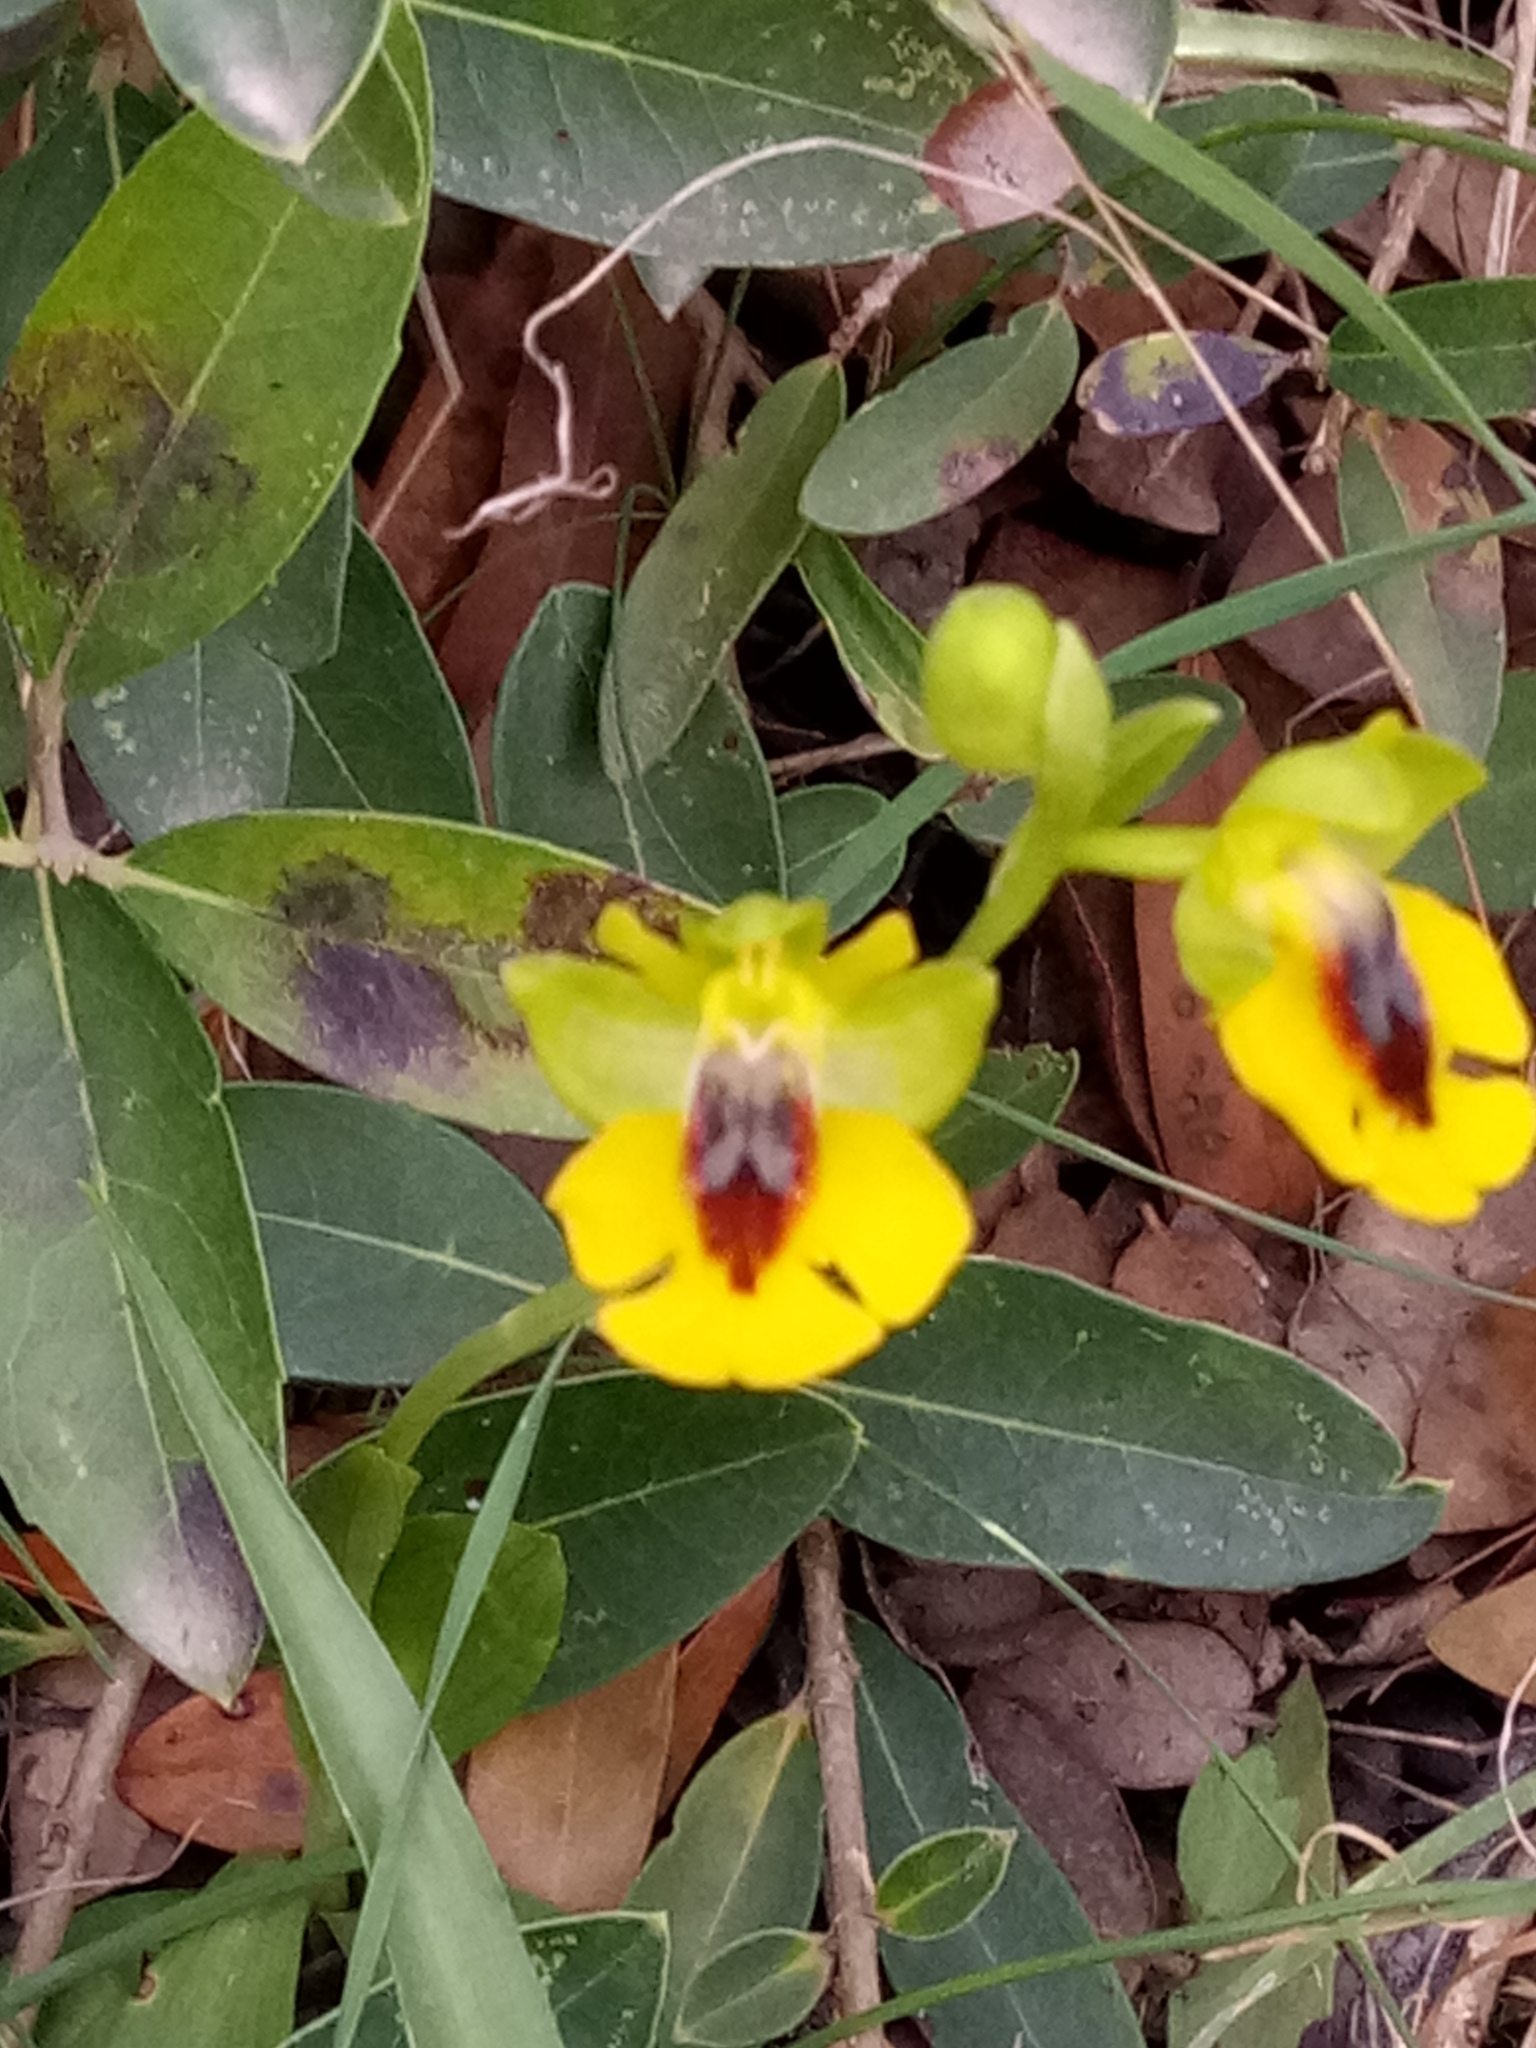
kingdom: Plantae
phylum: Tracheophyta
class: Liliopsida
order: Asparagales
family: Orchidaceae
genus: Ophrys
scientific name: Ophrys lutea
